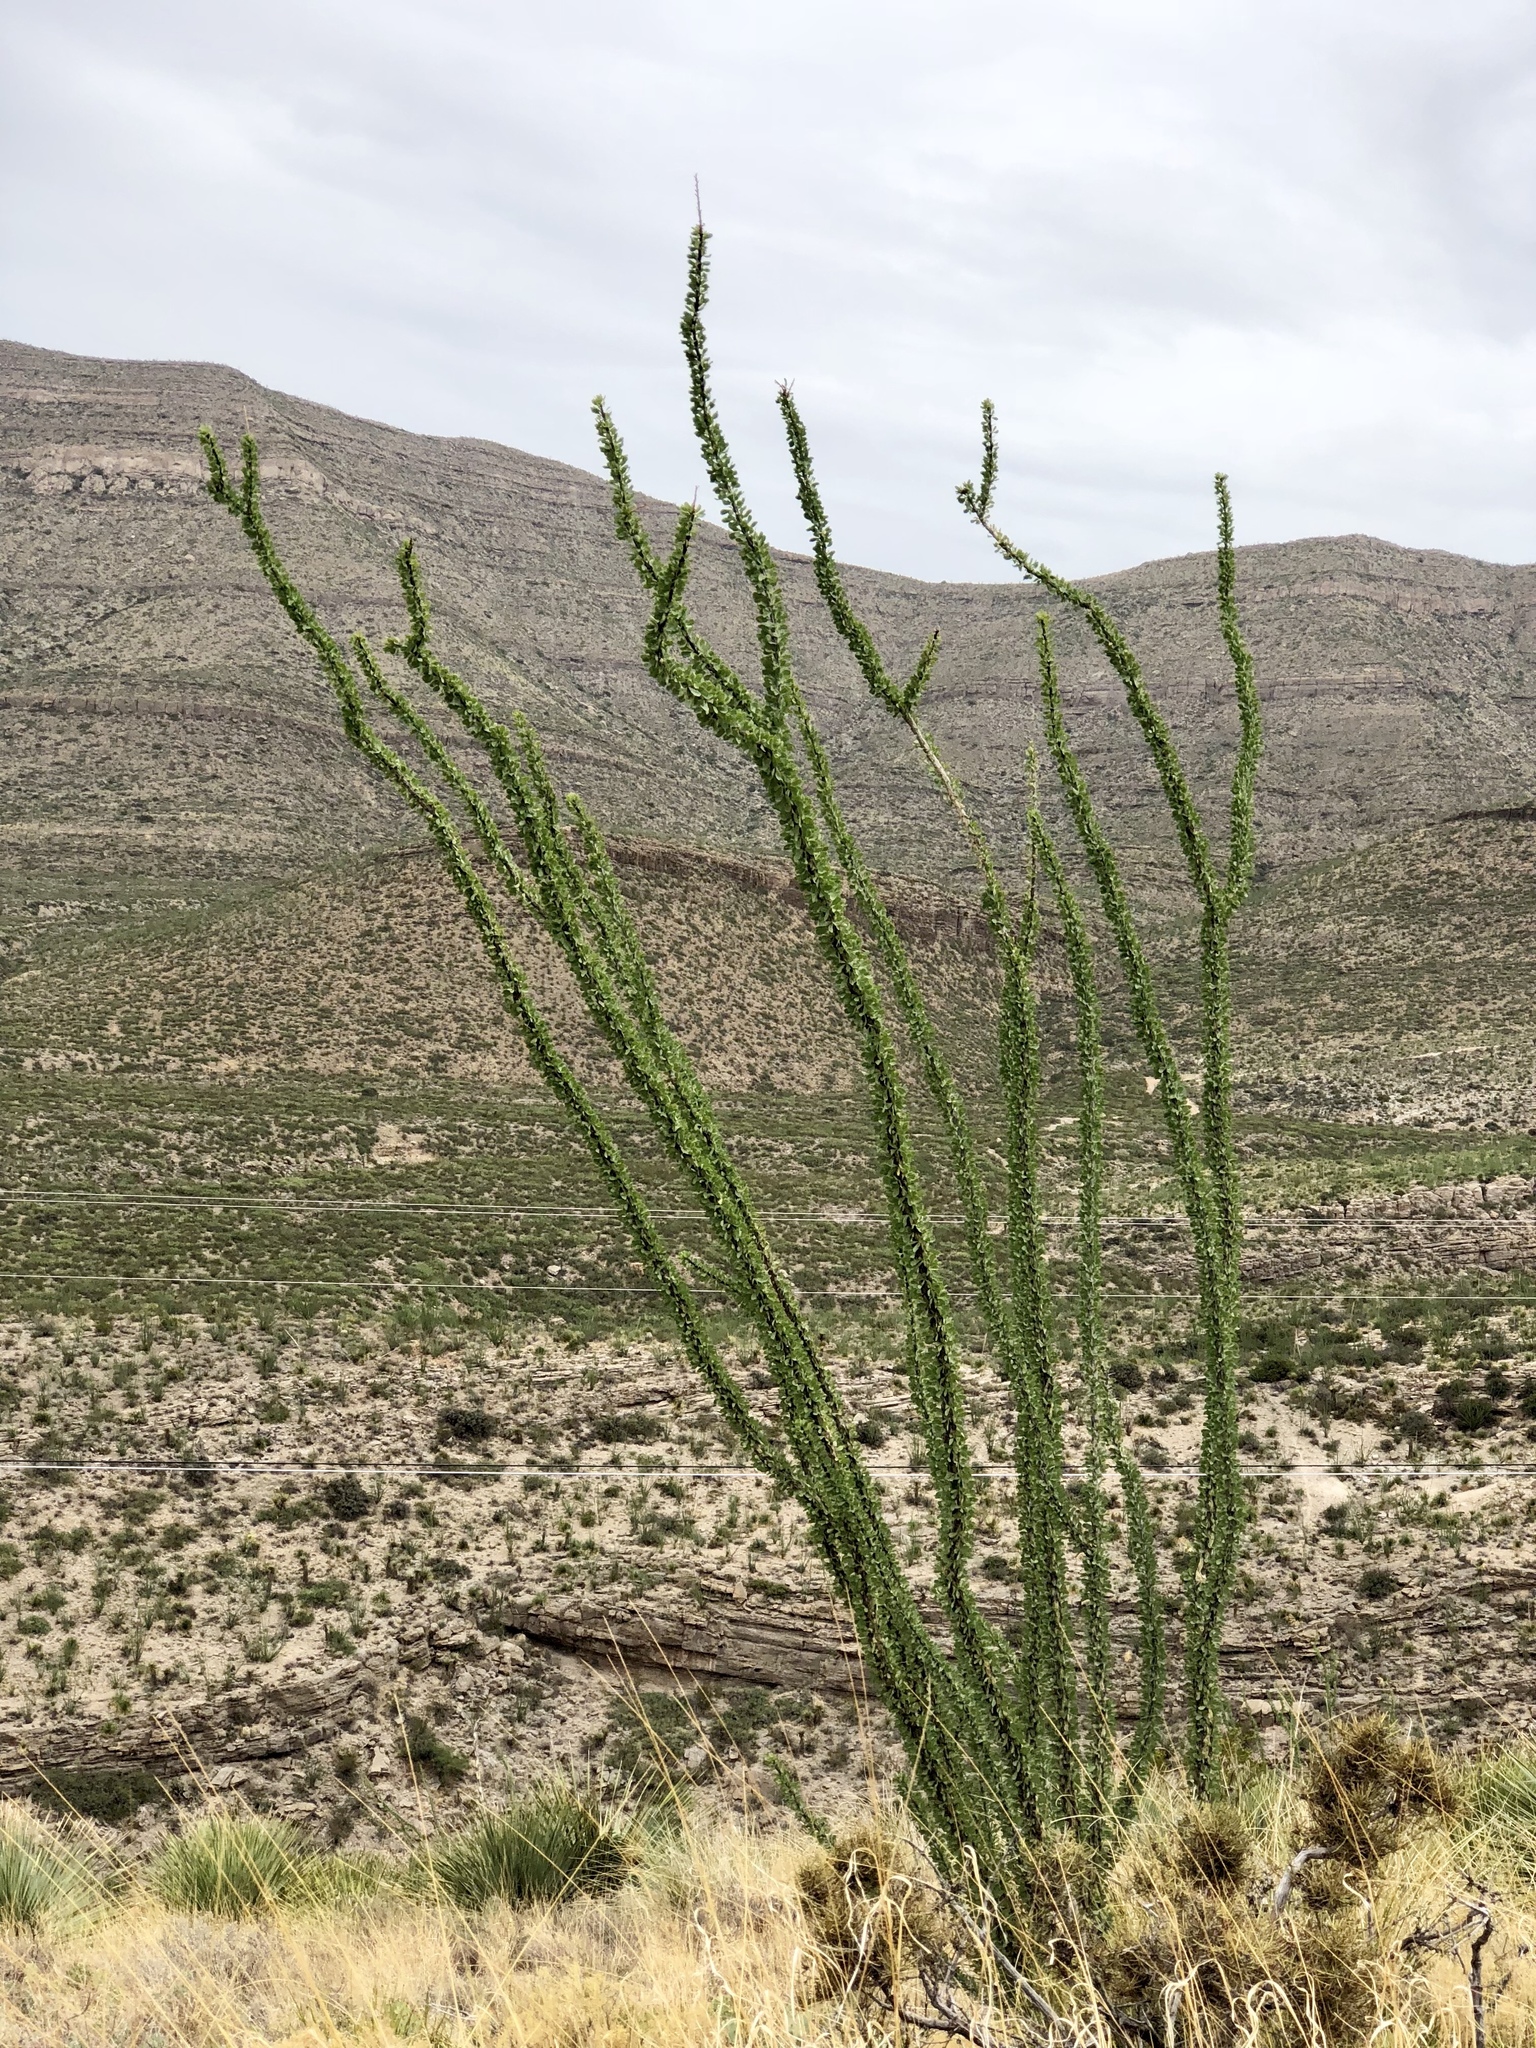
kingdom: Plantae
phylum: Tracheophyta
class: Magnoliopsida
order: Ericales
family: Fouquieriaceae
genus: Fouquieria
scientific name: Fouquieria splendens
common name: Vine-cactus
